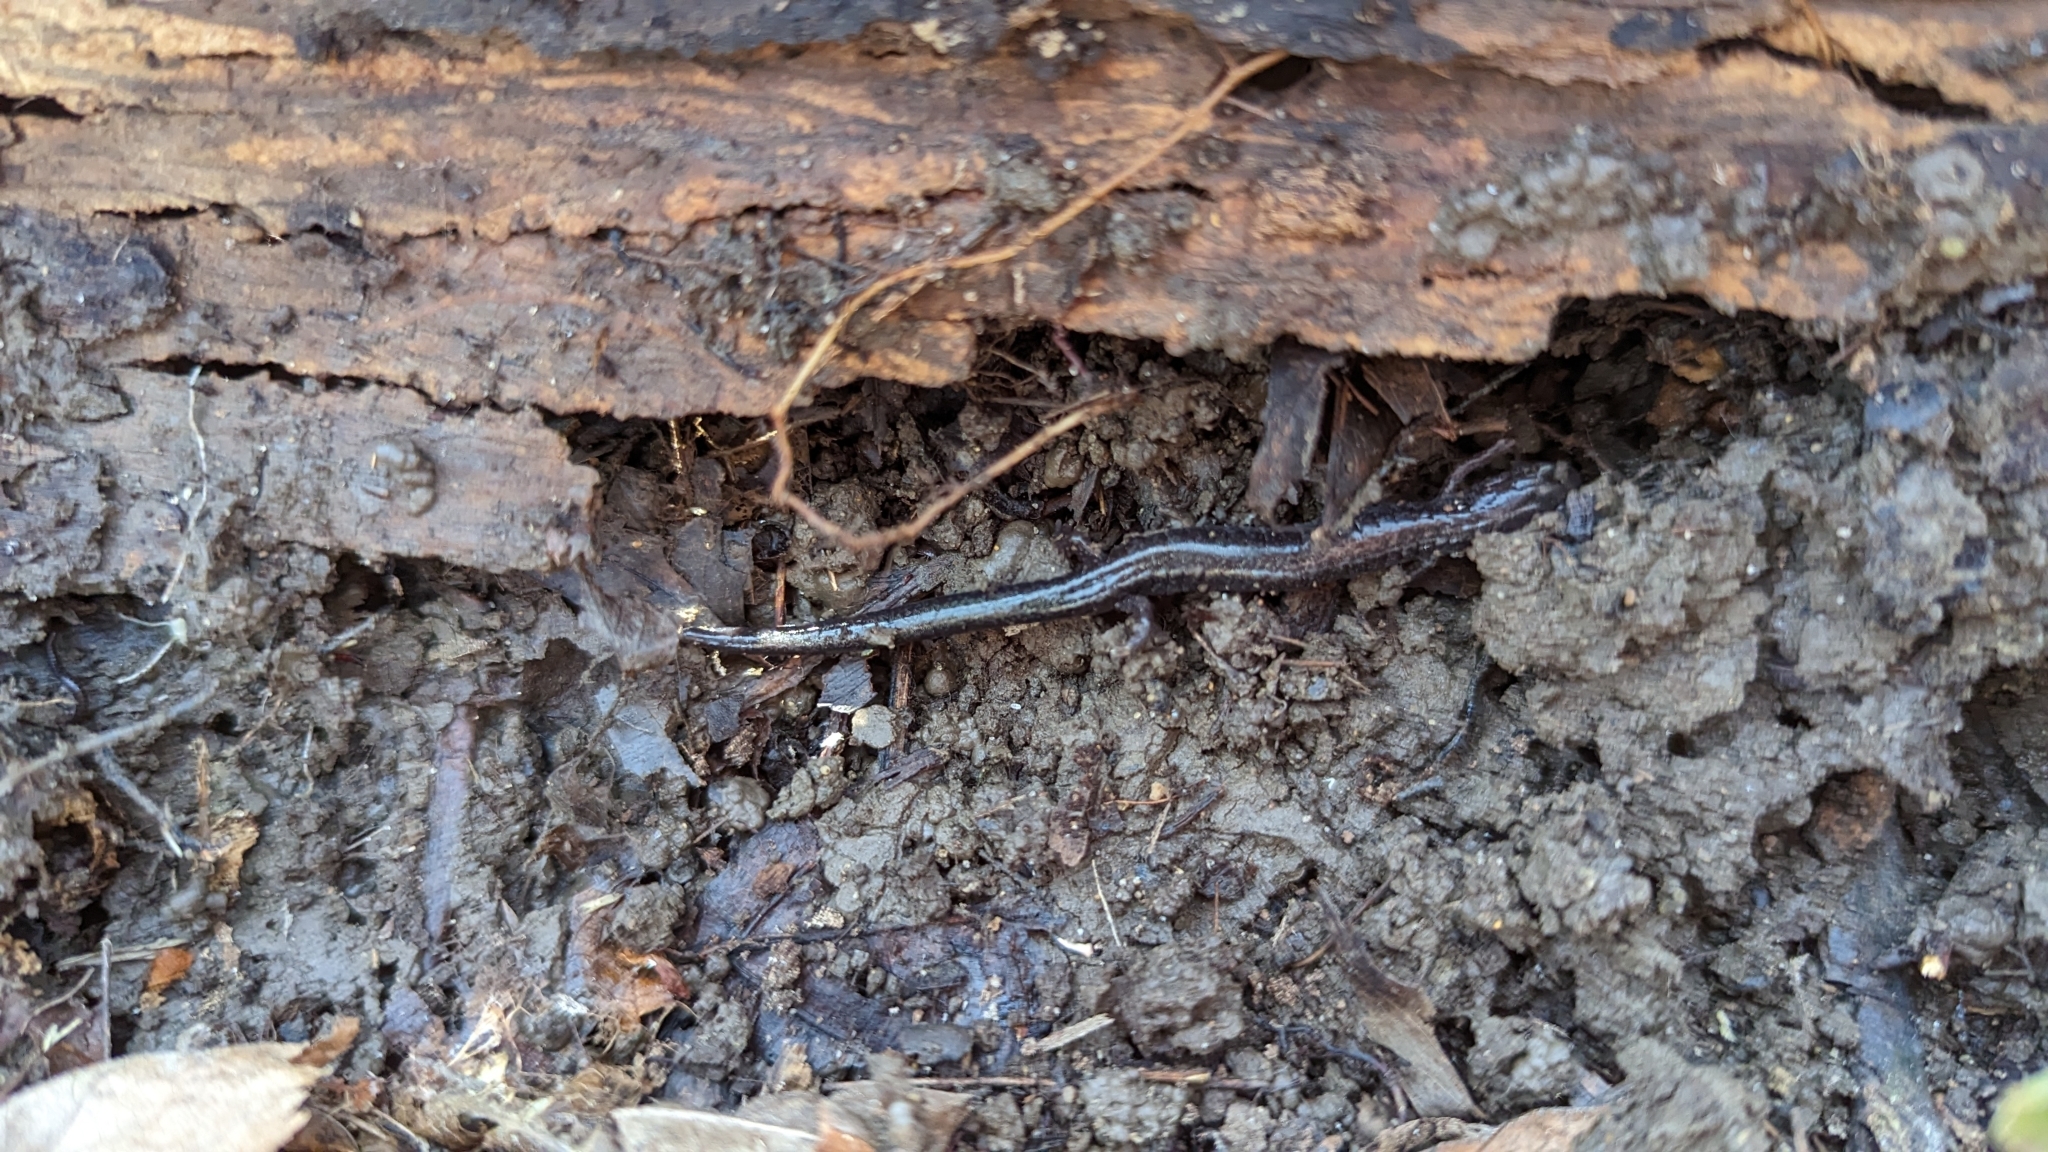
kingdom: Animalia
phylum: Chordata
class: Amphibia
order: Caudata
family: Plethodontidae
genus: Plethodon
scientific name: Plethodon cinereus
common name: Redback salamander
